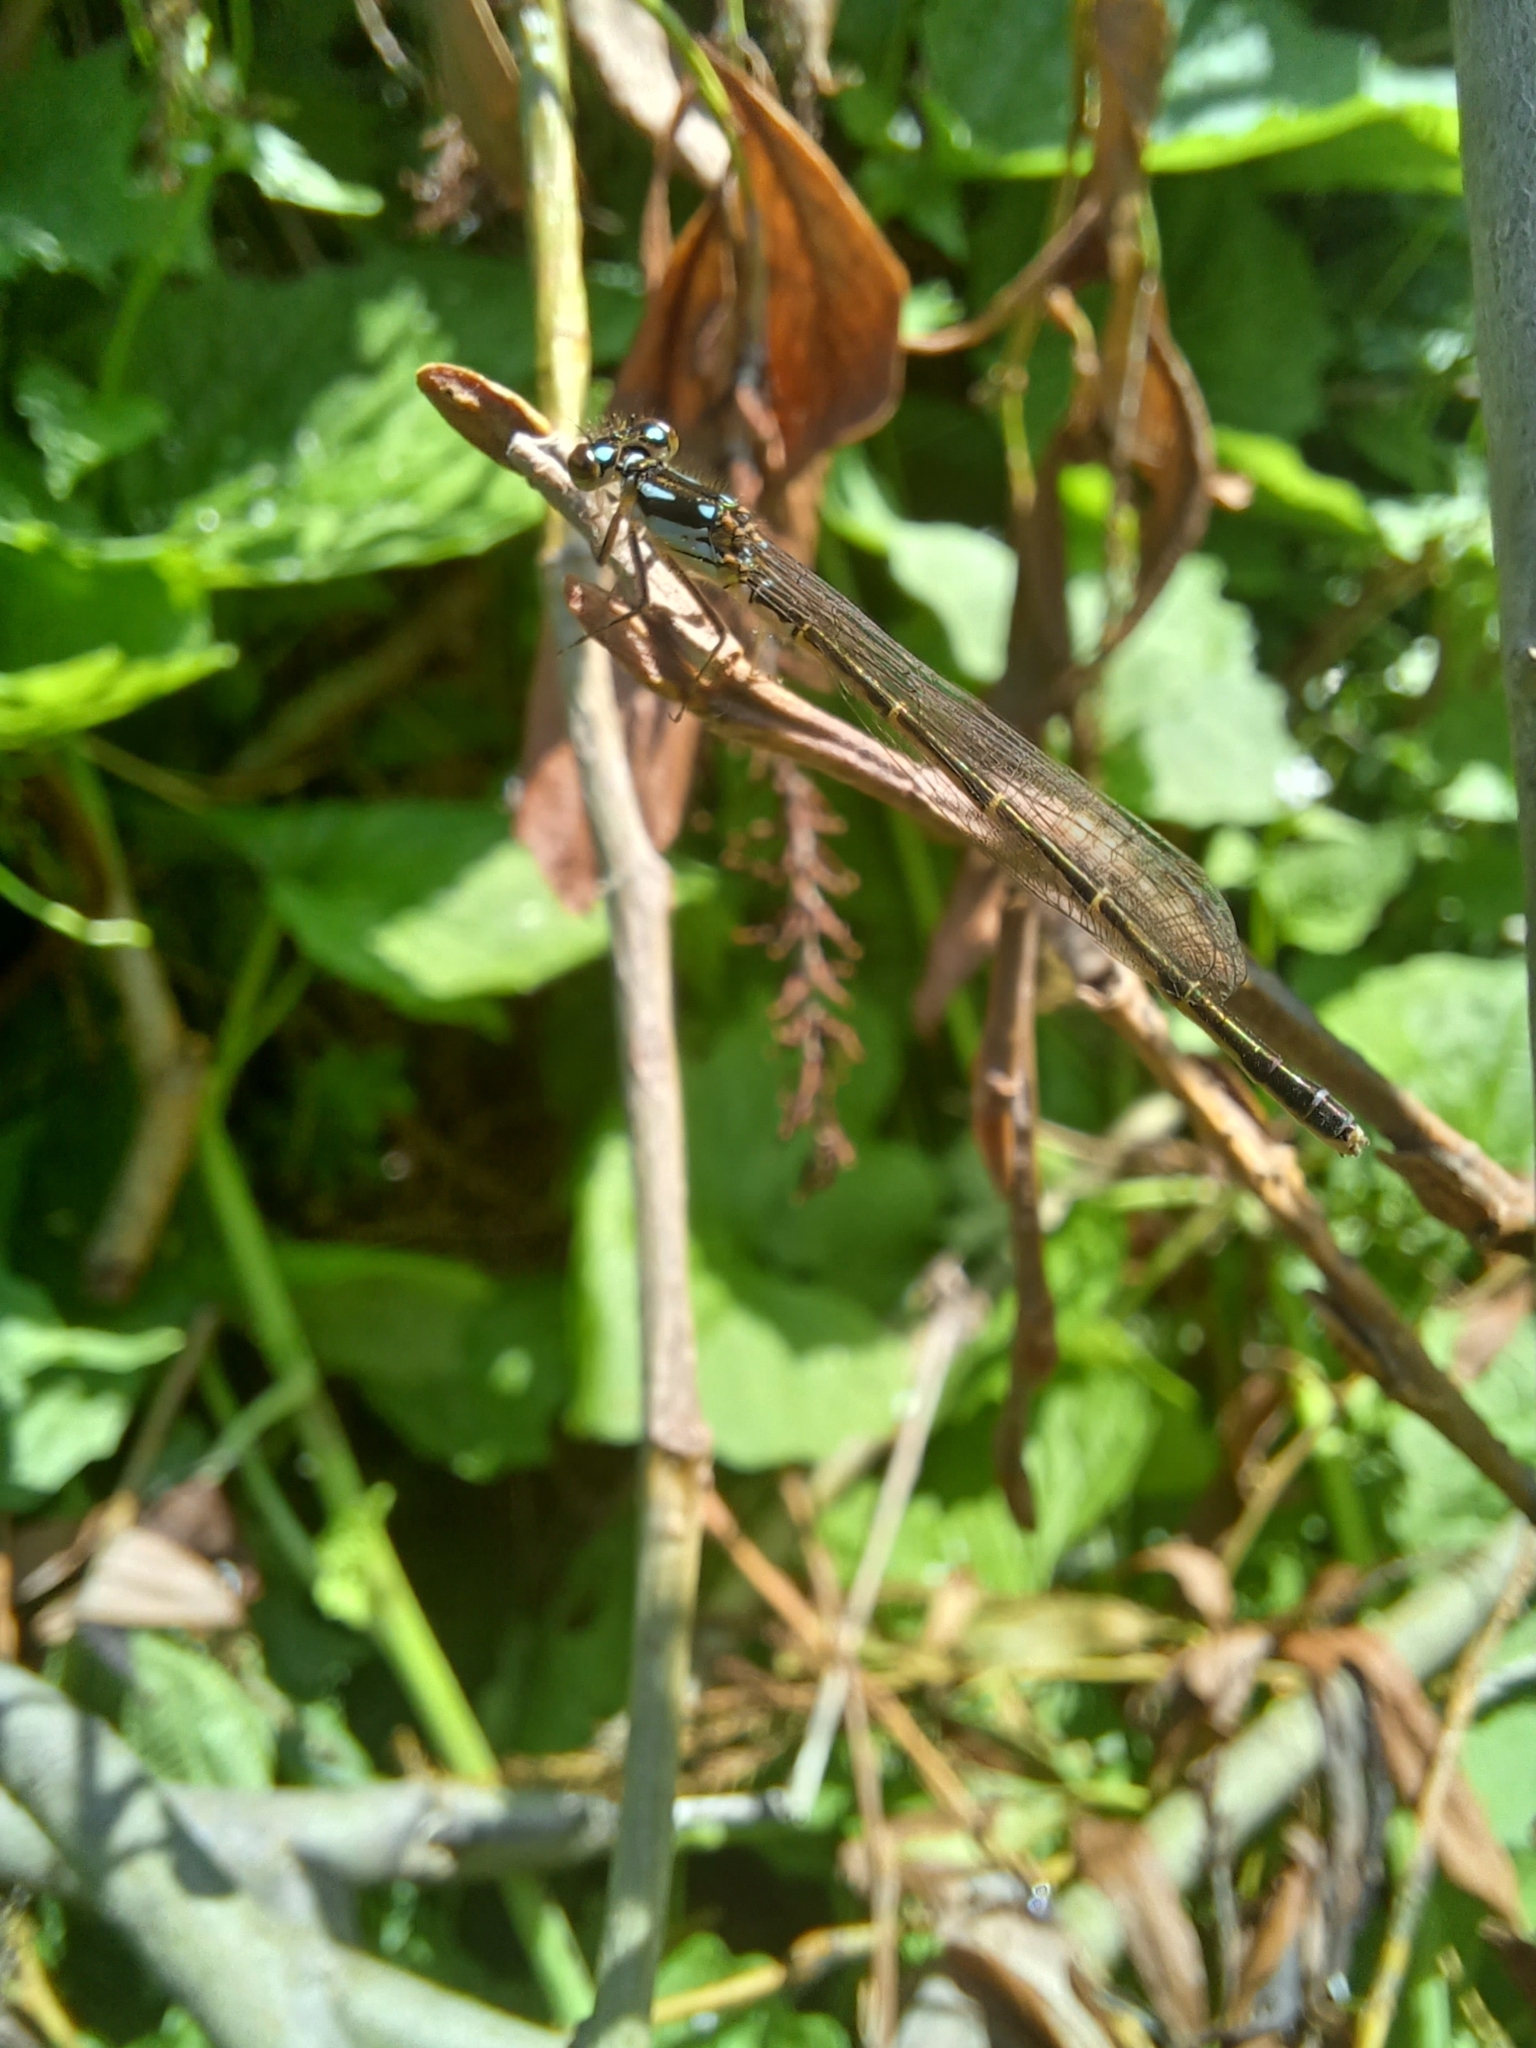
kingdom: Animalia
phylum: Arthropoda
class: Insecta
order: Odonata
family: Coenagrionidae
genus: Ischnura
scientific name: Ischnura posita
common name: Fragile forktail
